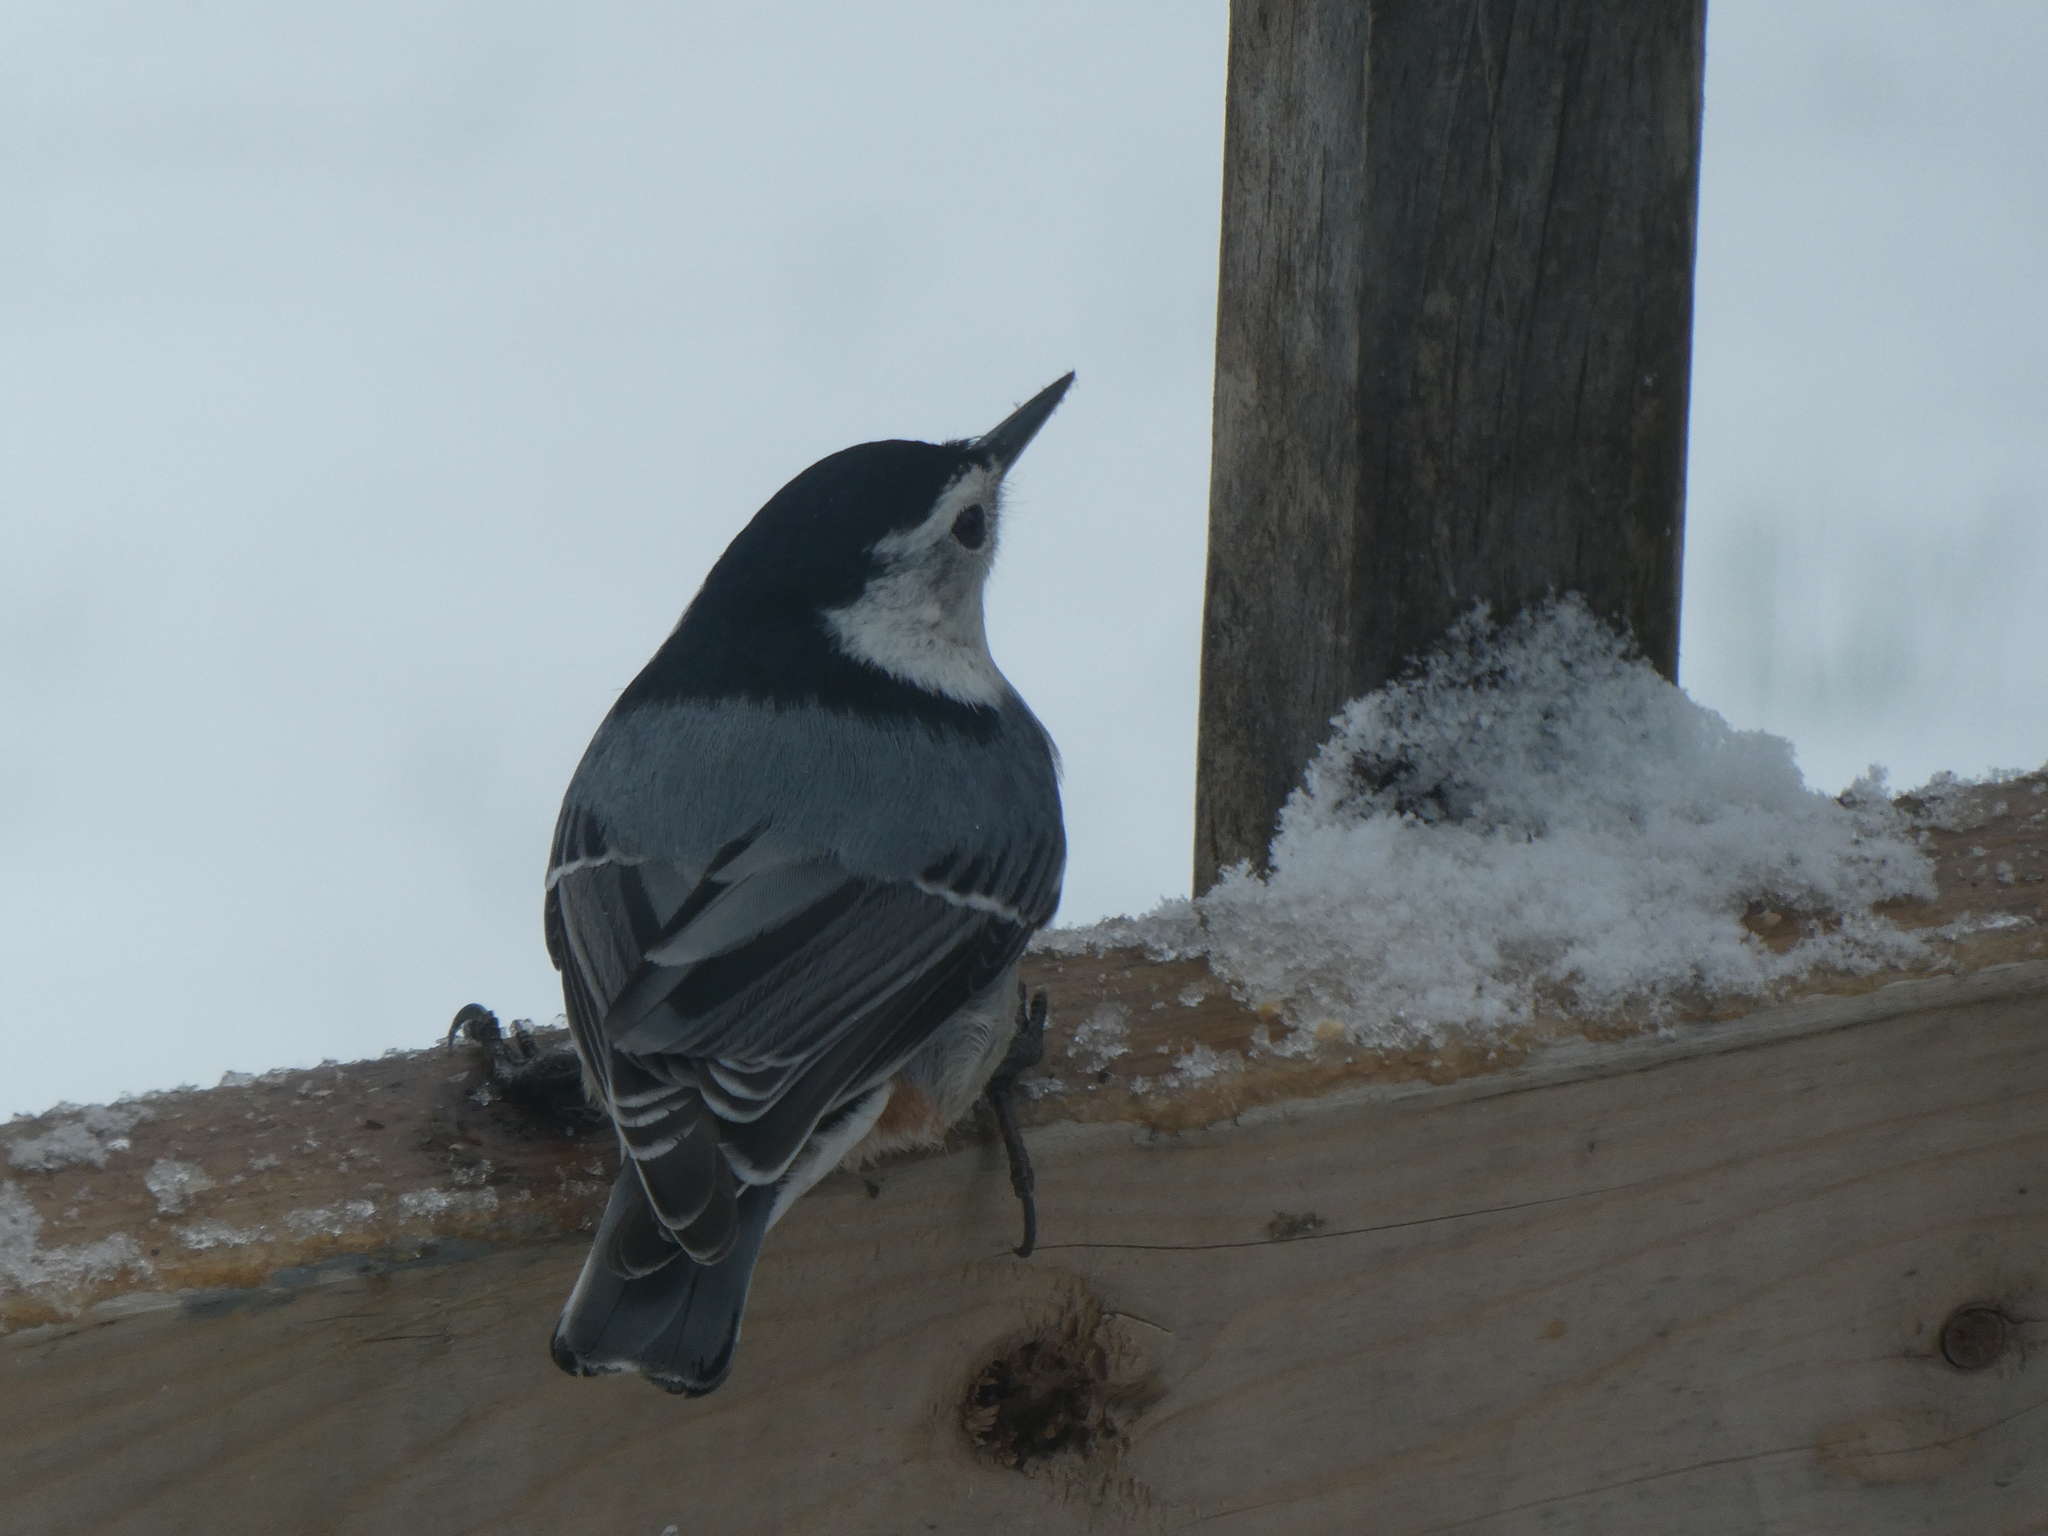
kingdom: Animalia
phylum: Chordata
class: Aves
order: Passeriformes
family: Sittidae
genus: Sitta
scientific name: Sitta carolinensis
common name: White-breasted nuthatch
